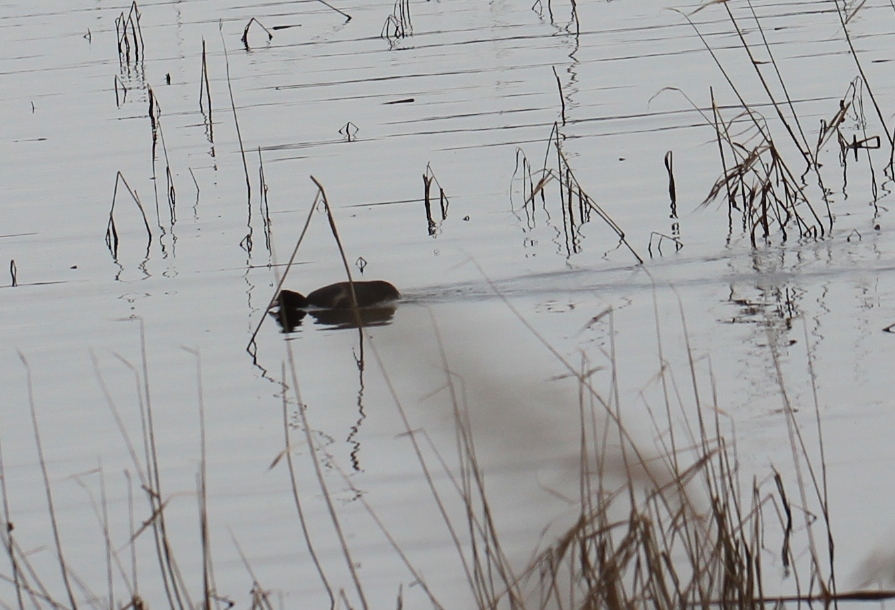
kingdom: Animalia
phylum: Chordata
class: Aves
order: Gruiformes
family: Rallidae
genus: Fulica
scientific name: Fulica atra
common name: Eurasian coot
